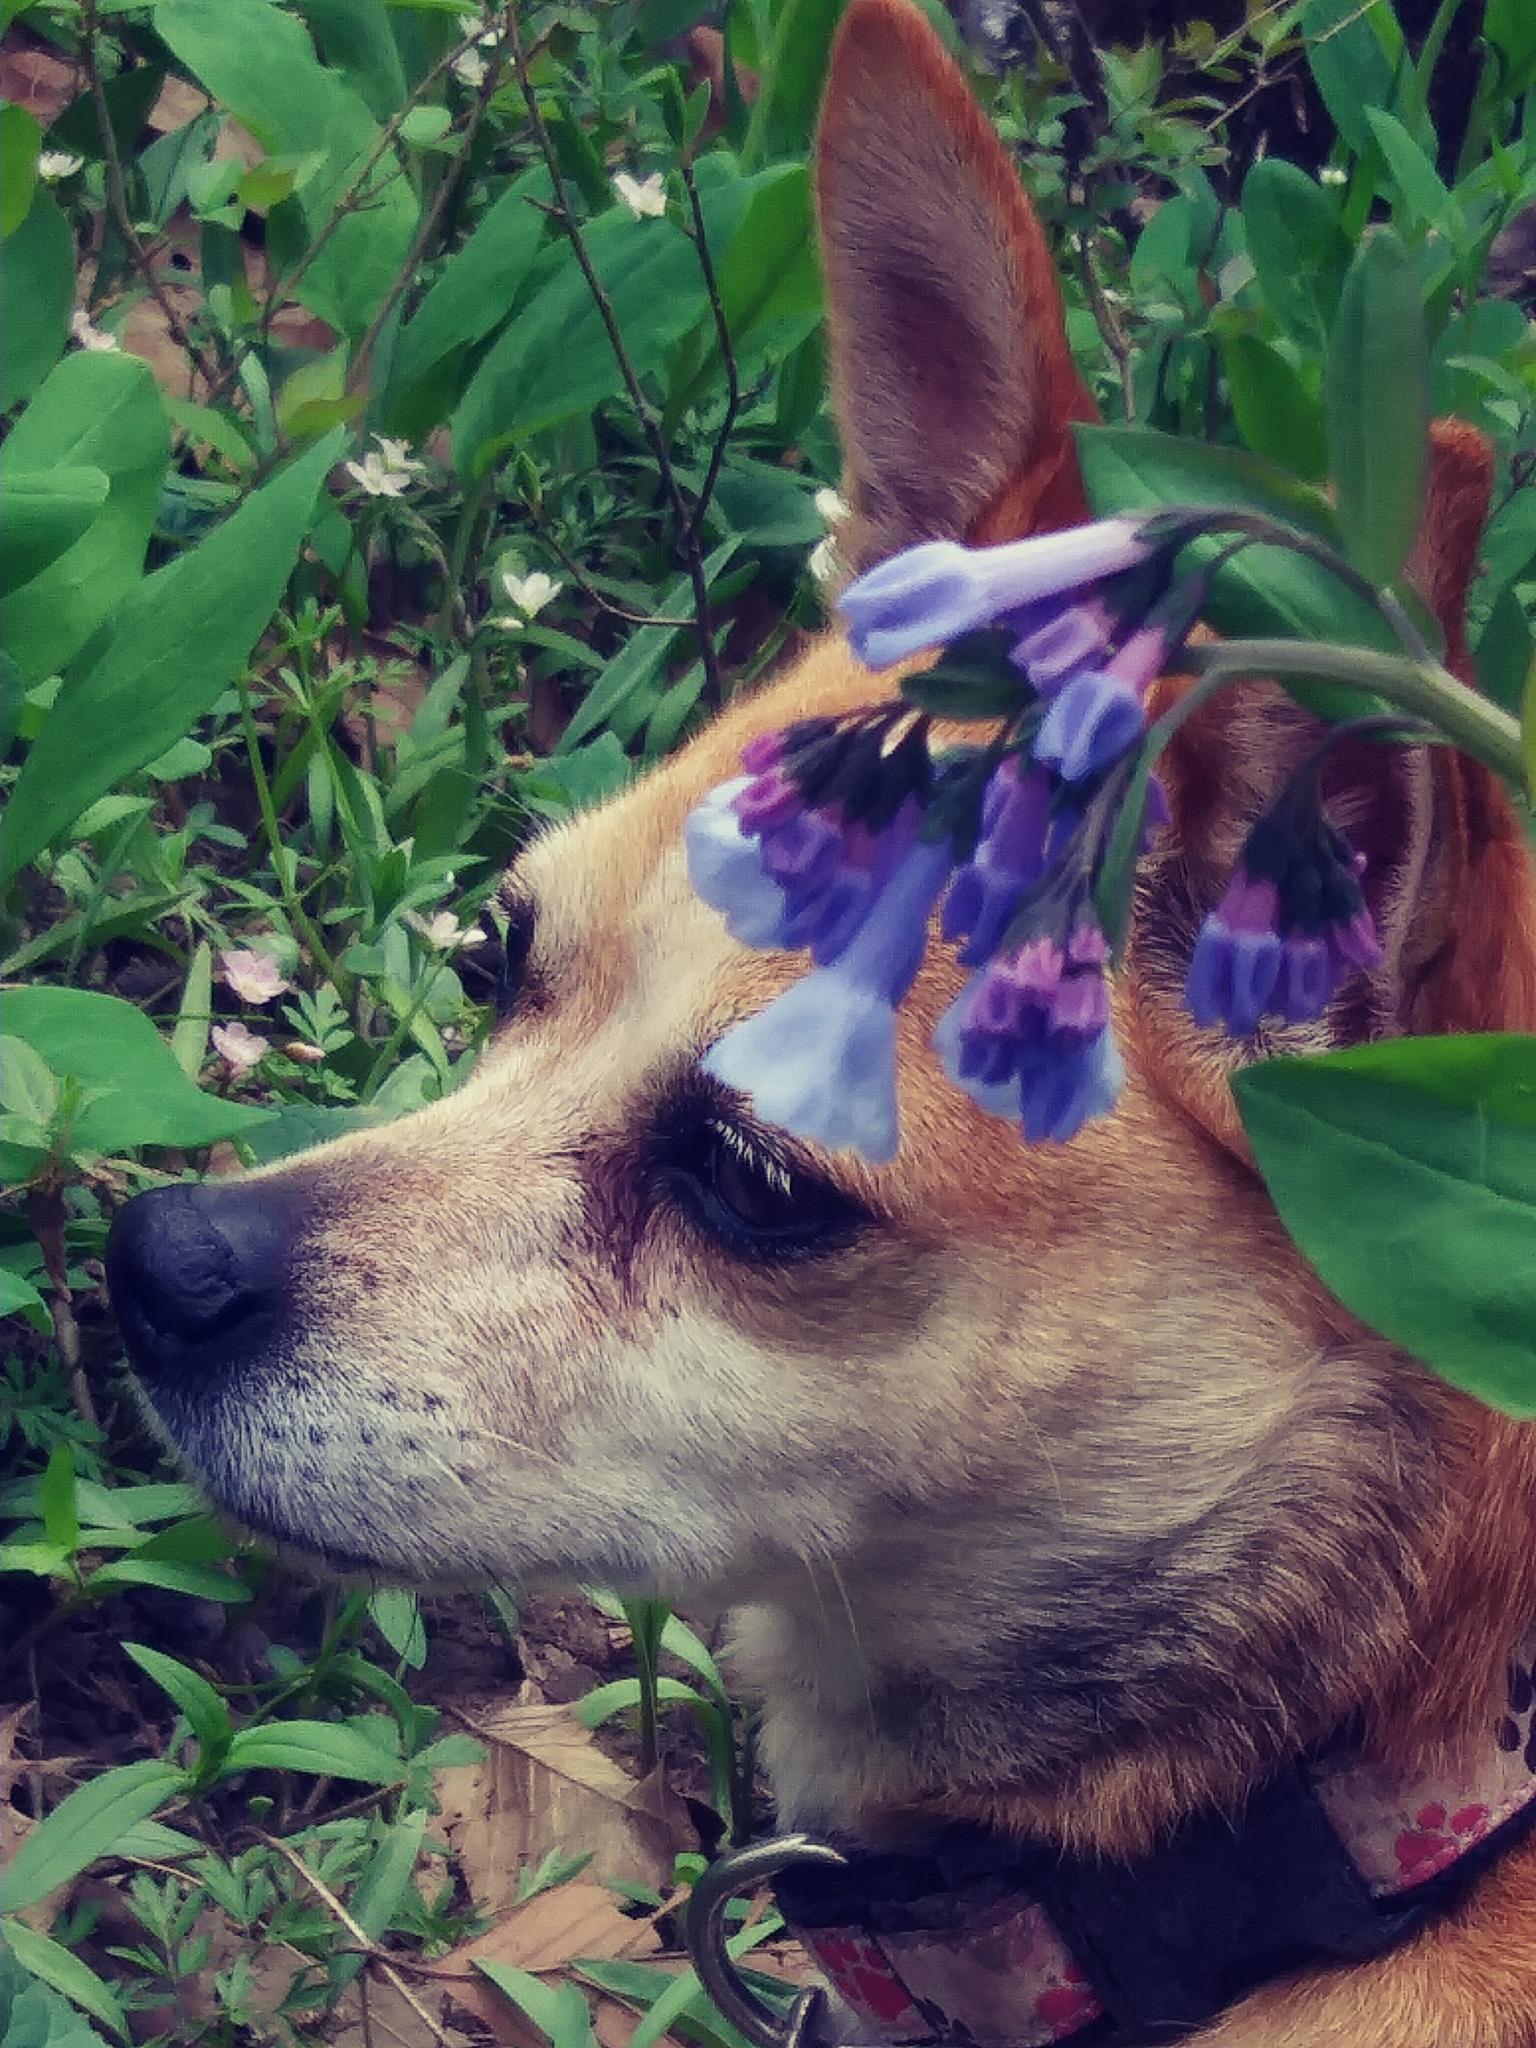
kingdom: Plantae
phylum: Tracheophyta
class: Magnoliopsida
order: Boraginales
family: Boraginaceae
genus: Mertensia
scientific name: Mertensia virginica
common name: Virginia bluebells
